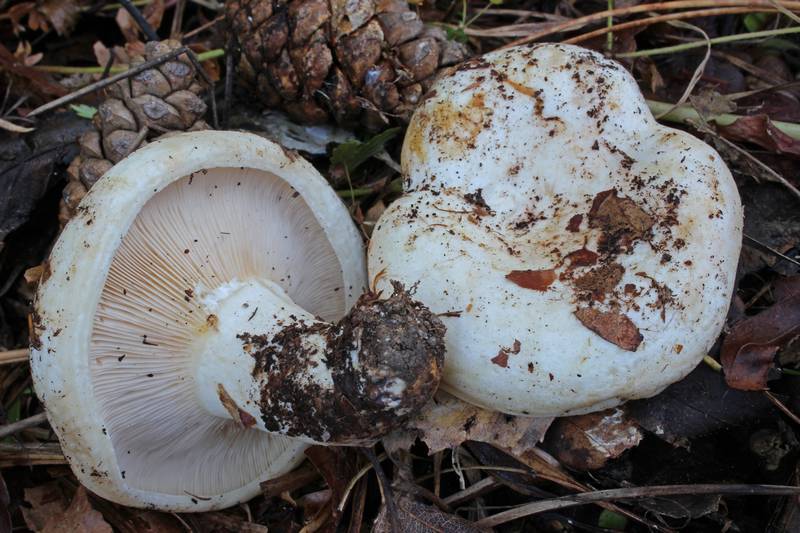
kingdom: Fungi
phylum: Basidiomycota
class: Agaricomycetes
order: Russulales
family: Russulaceae
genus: Lactarius
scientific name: Lactarius resimus
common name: Rollrim milkcap
